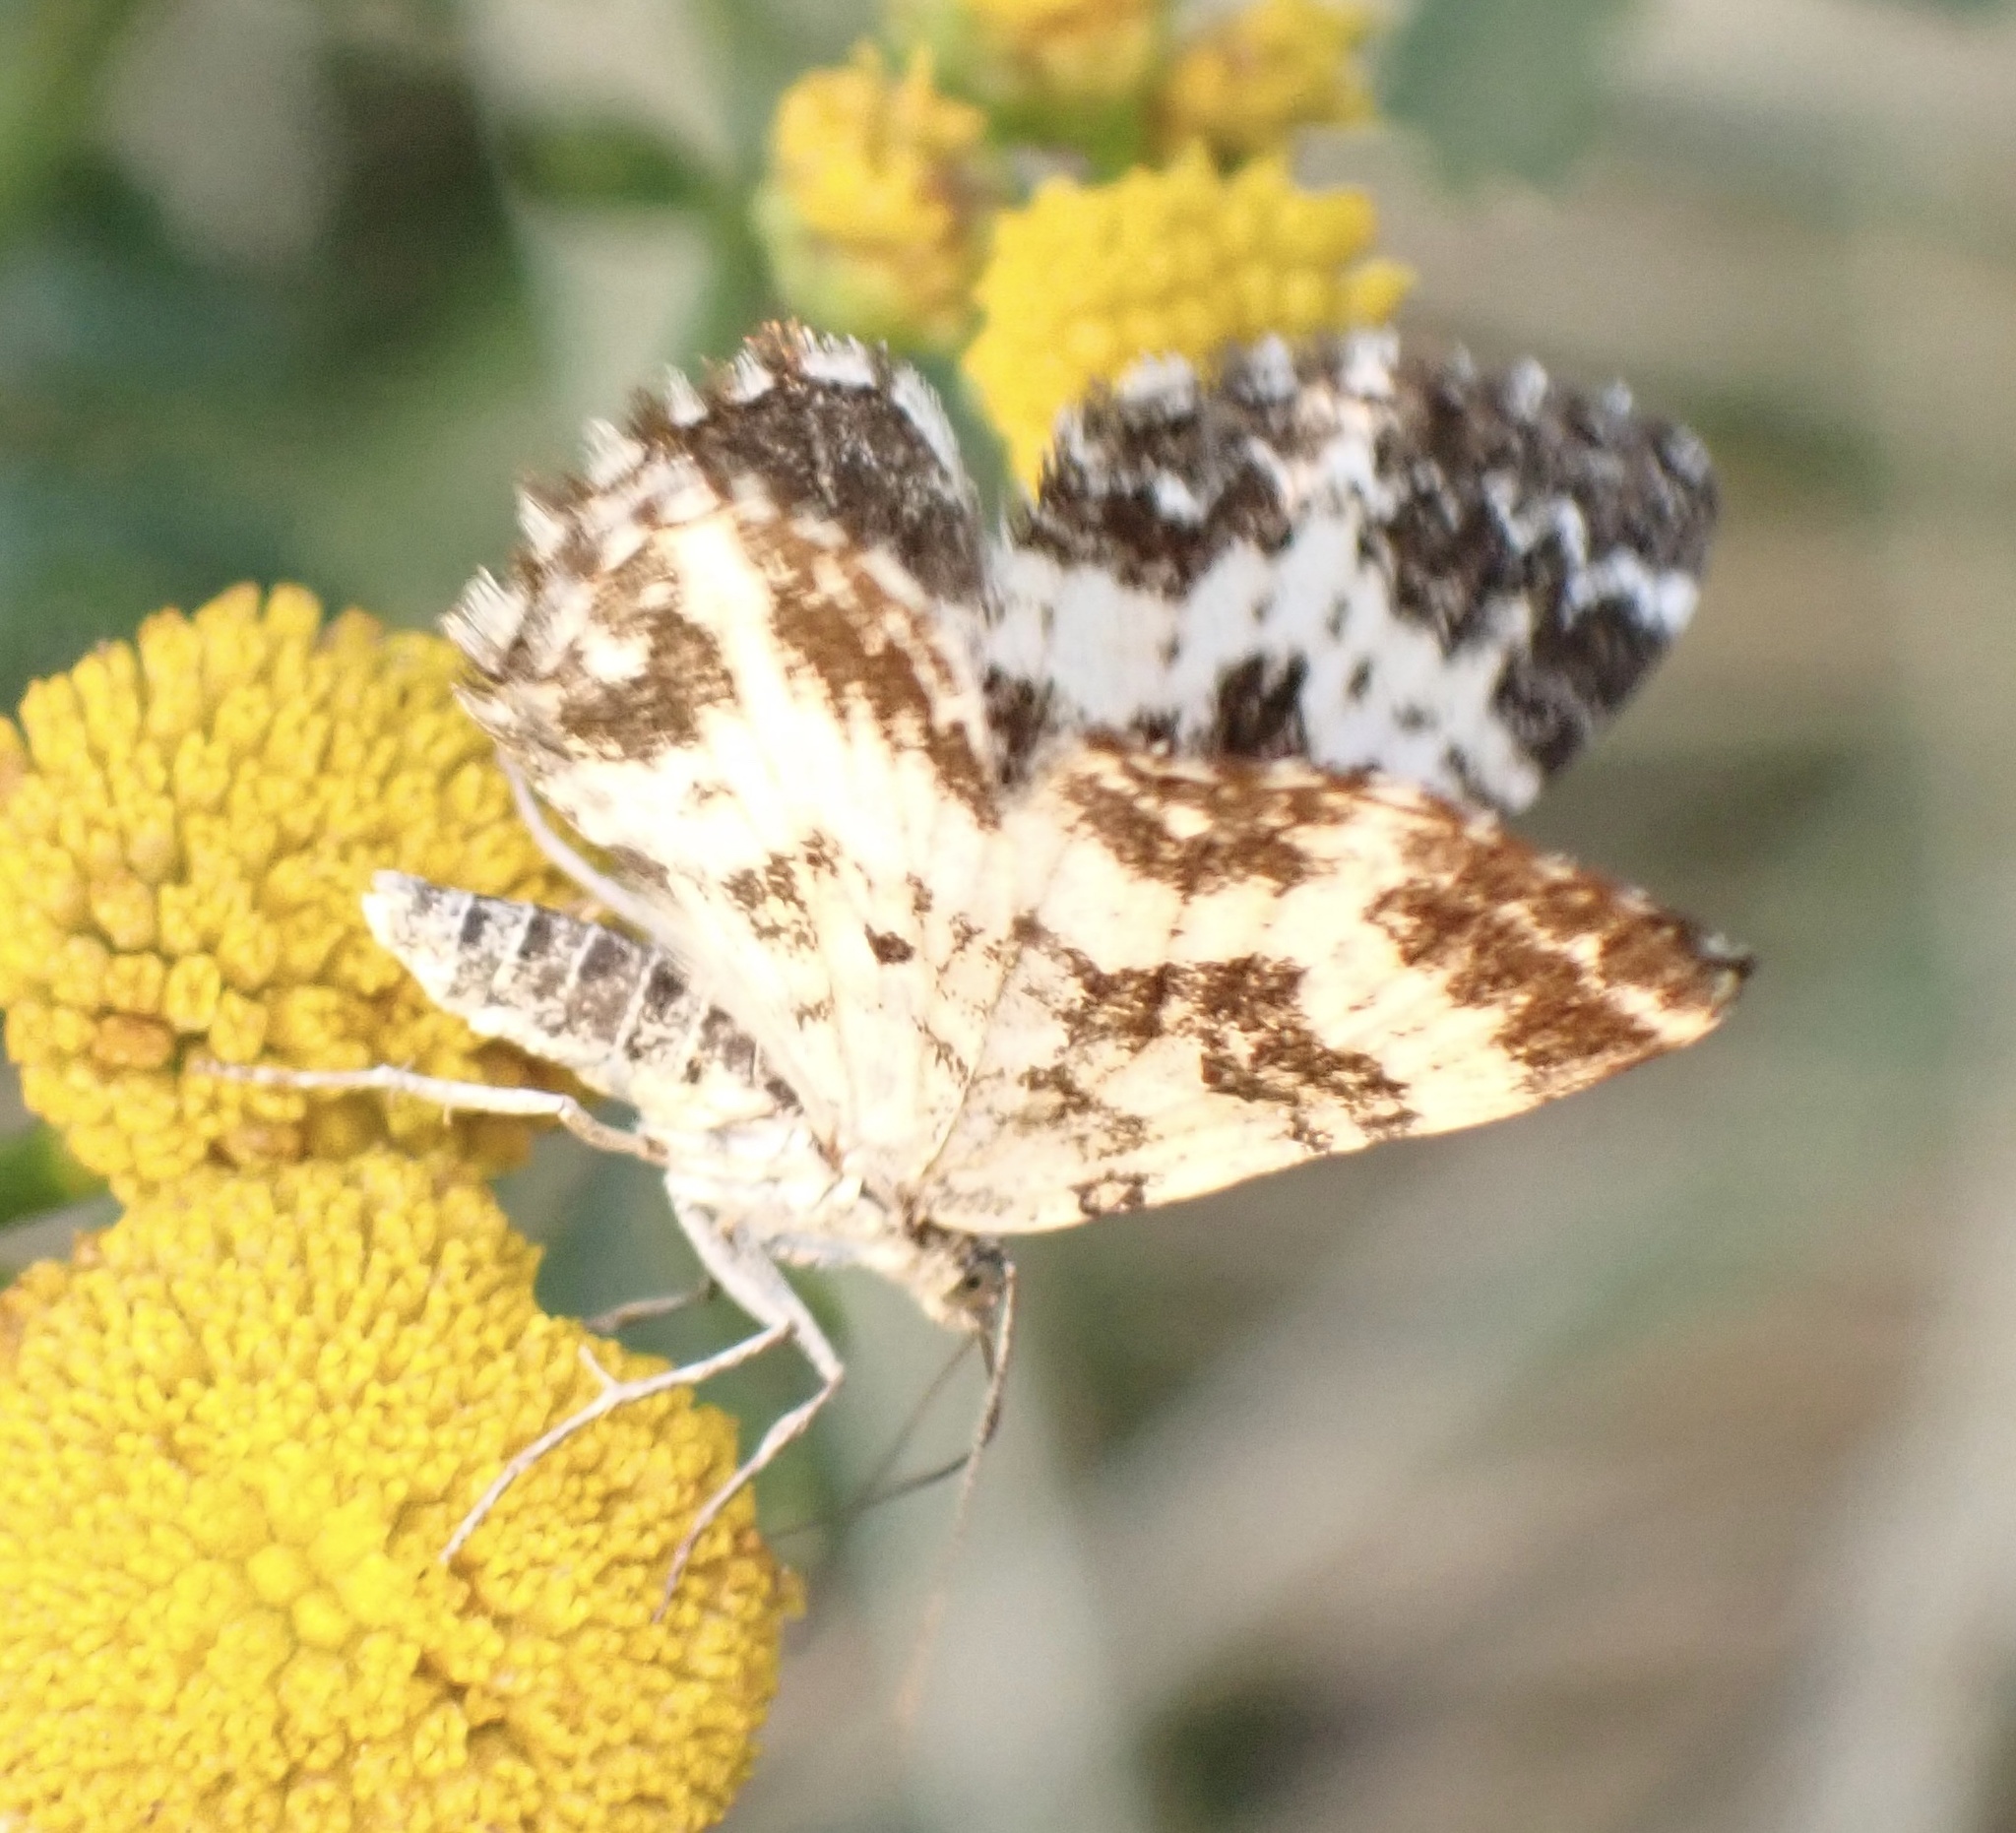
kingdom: Animalia
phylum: Arthropoda
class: Insecta
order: Lepidoptera
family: Geometridae
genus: Epirrhoe
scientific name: Epirrhoe tristata
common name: Small argent & sable
